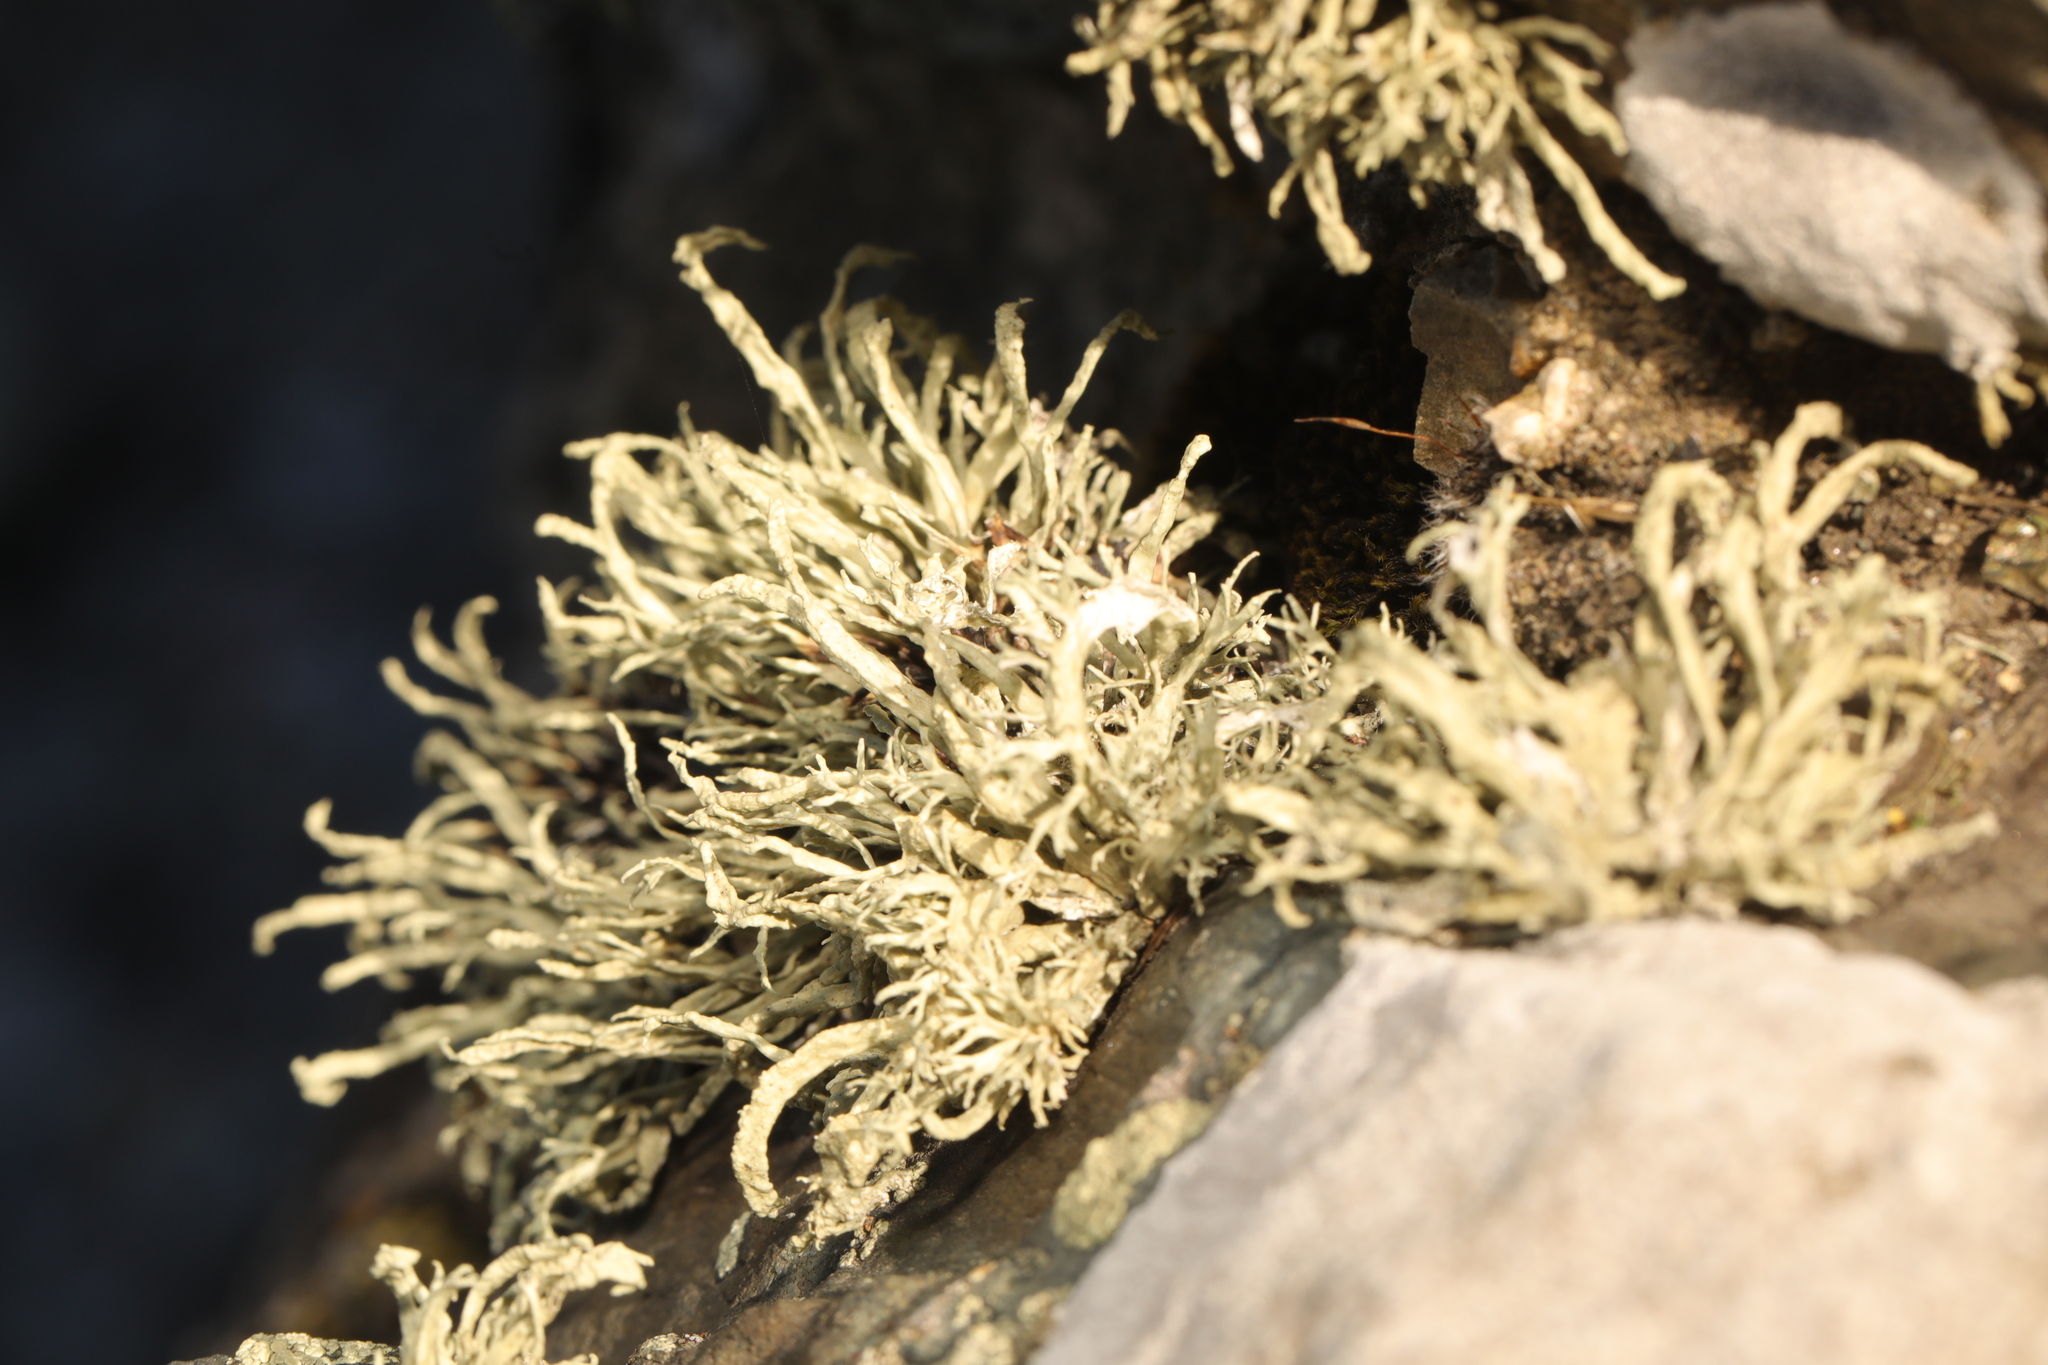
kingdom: Fungi
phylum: Ascomycota
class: Lecanoromycetes
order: Lecanorales
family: Ramalinaceae
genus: Ramalina
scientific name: Ramalina siliquosa
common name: Sea ivory
